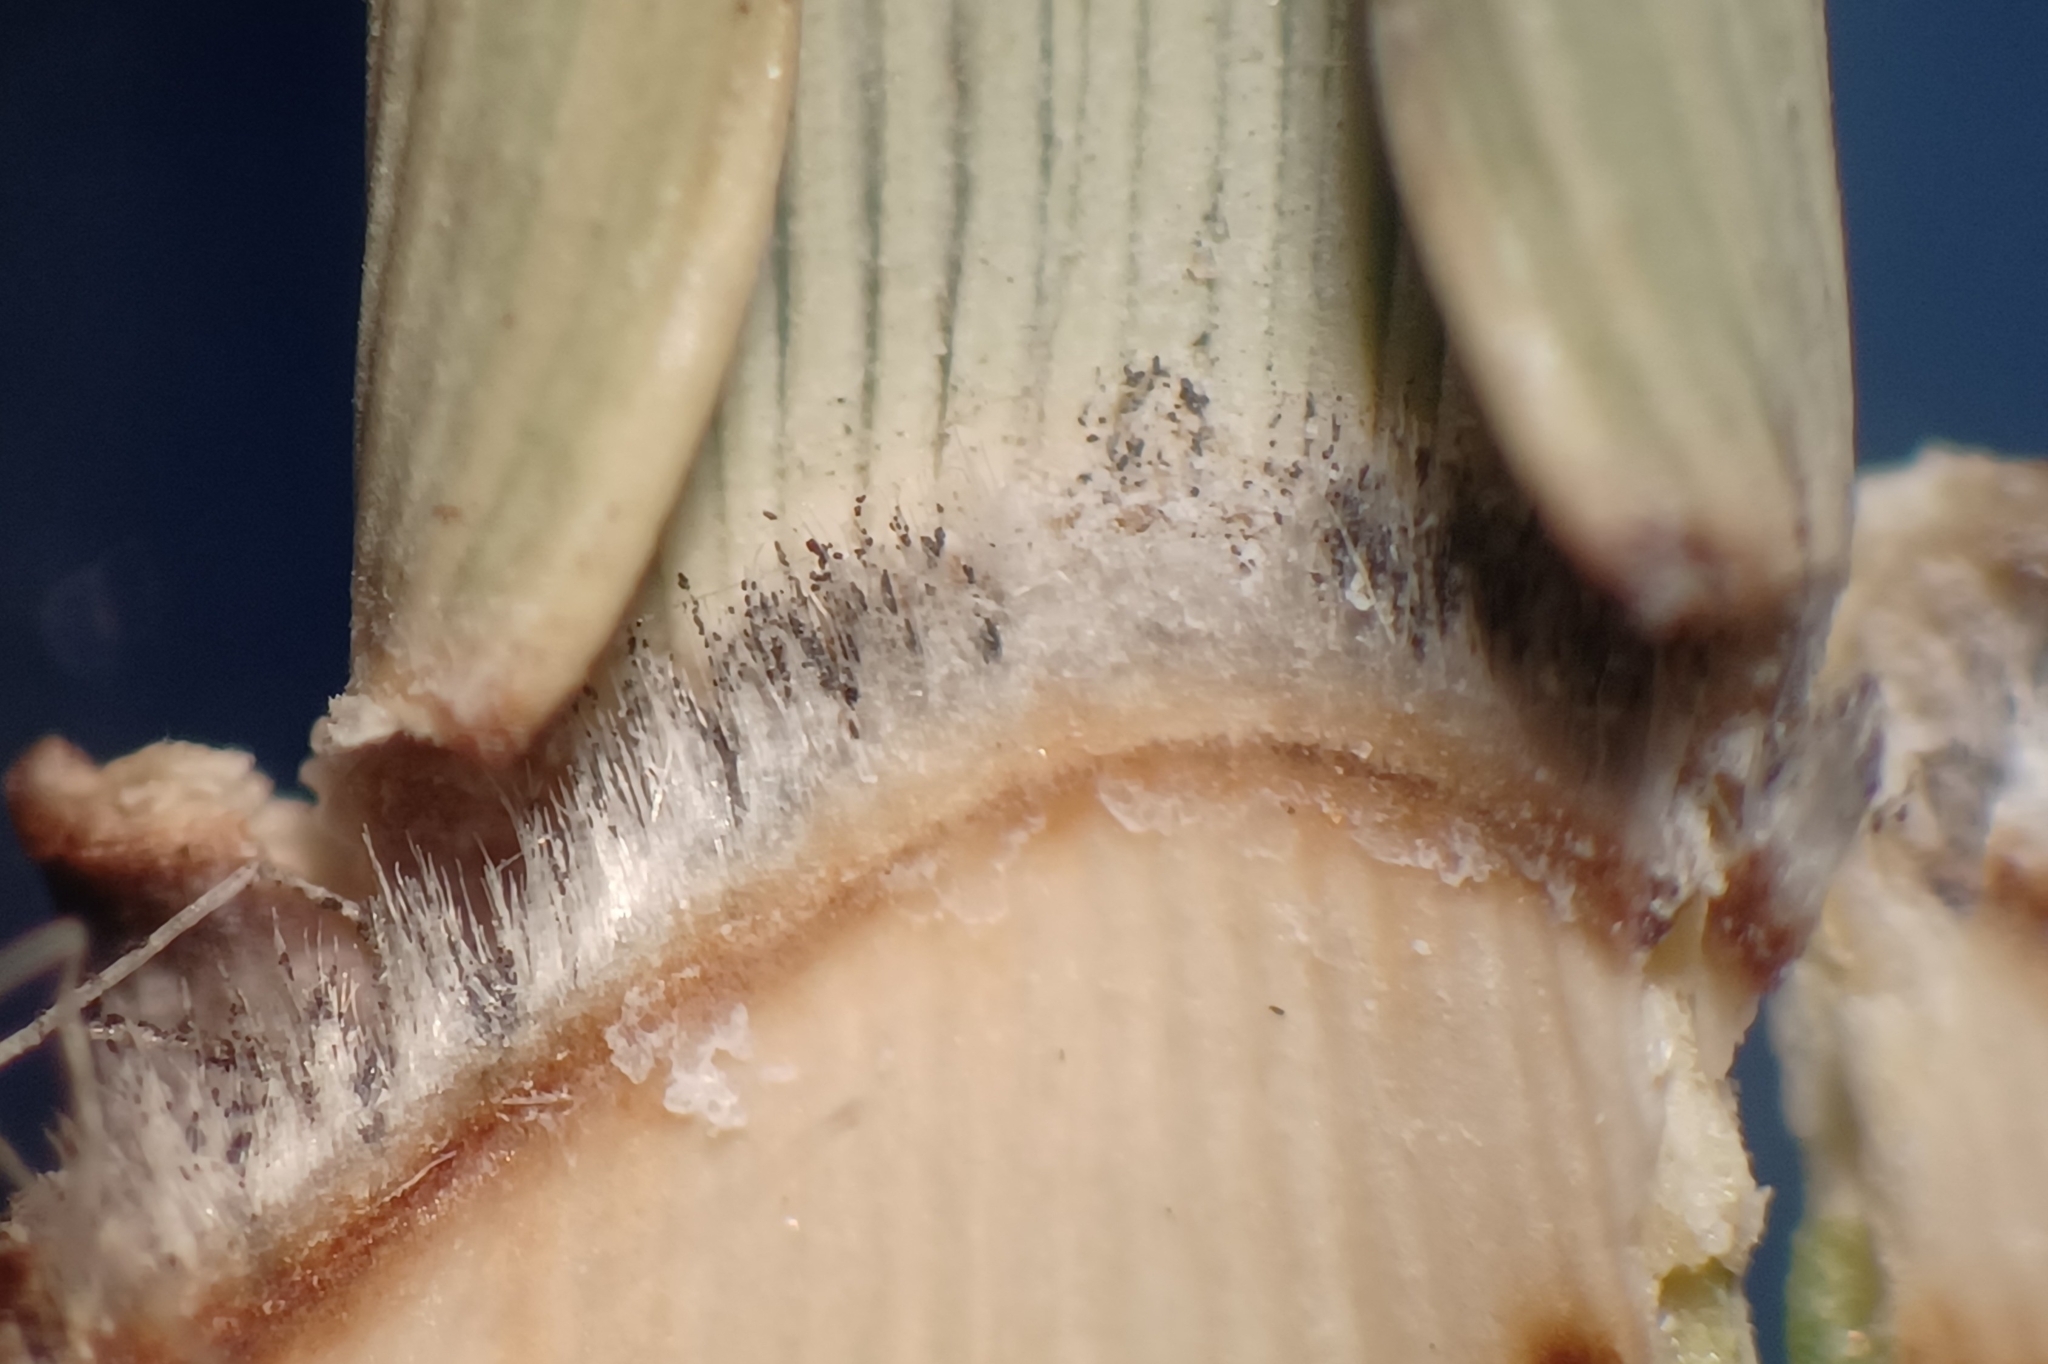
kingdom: Plantae
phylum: Tracheophyta
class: Liliopsida
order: Poales
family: Poaceae
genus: Phragmites
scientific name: Phragmites australis
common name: Common reed
